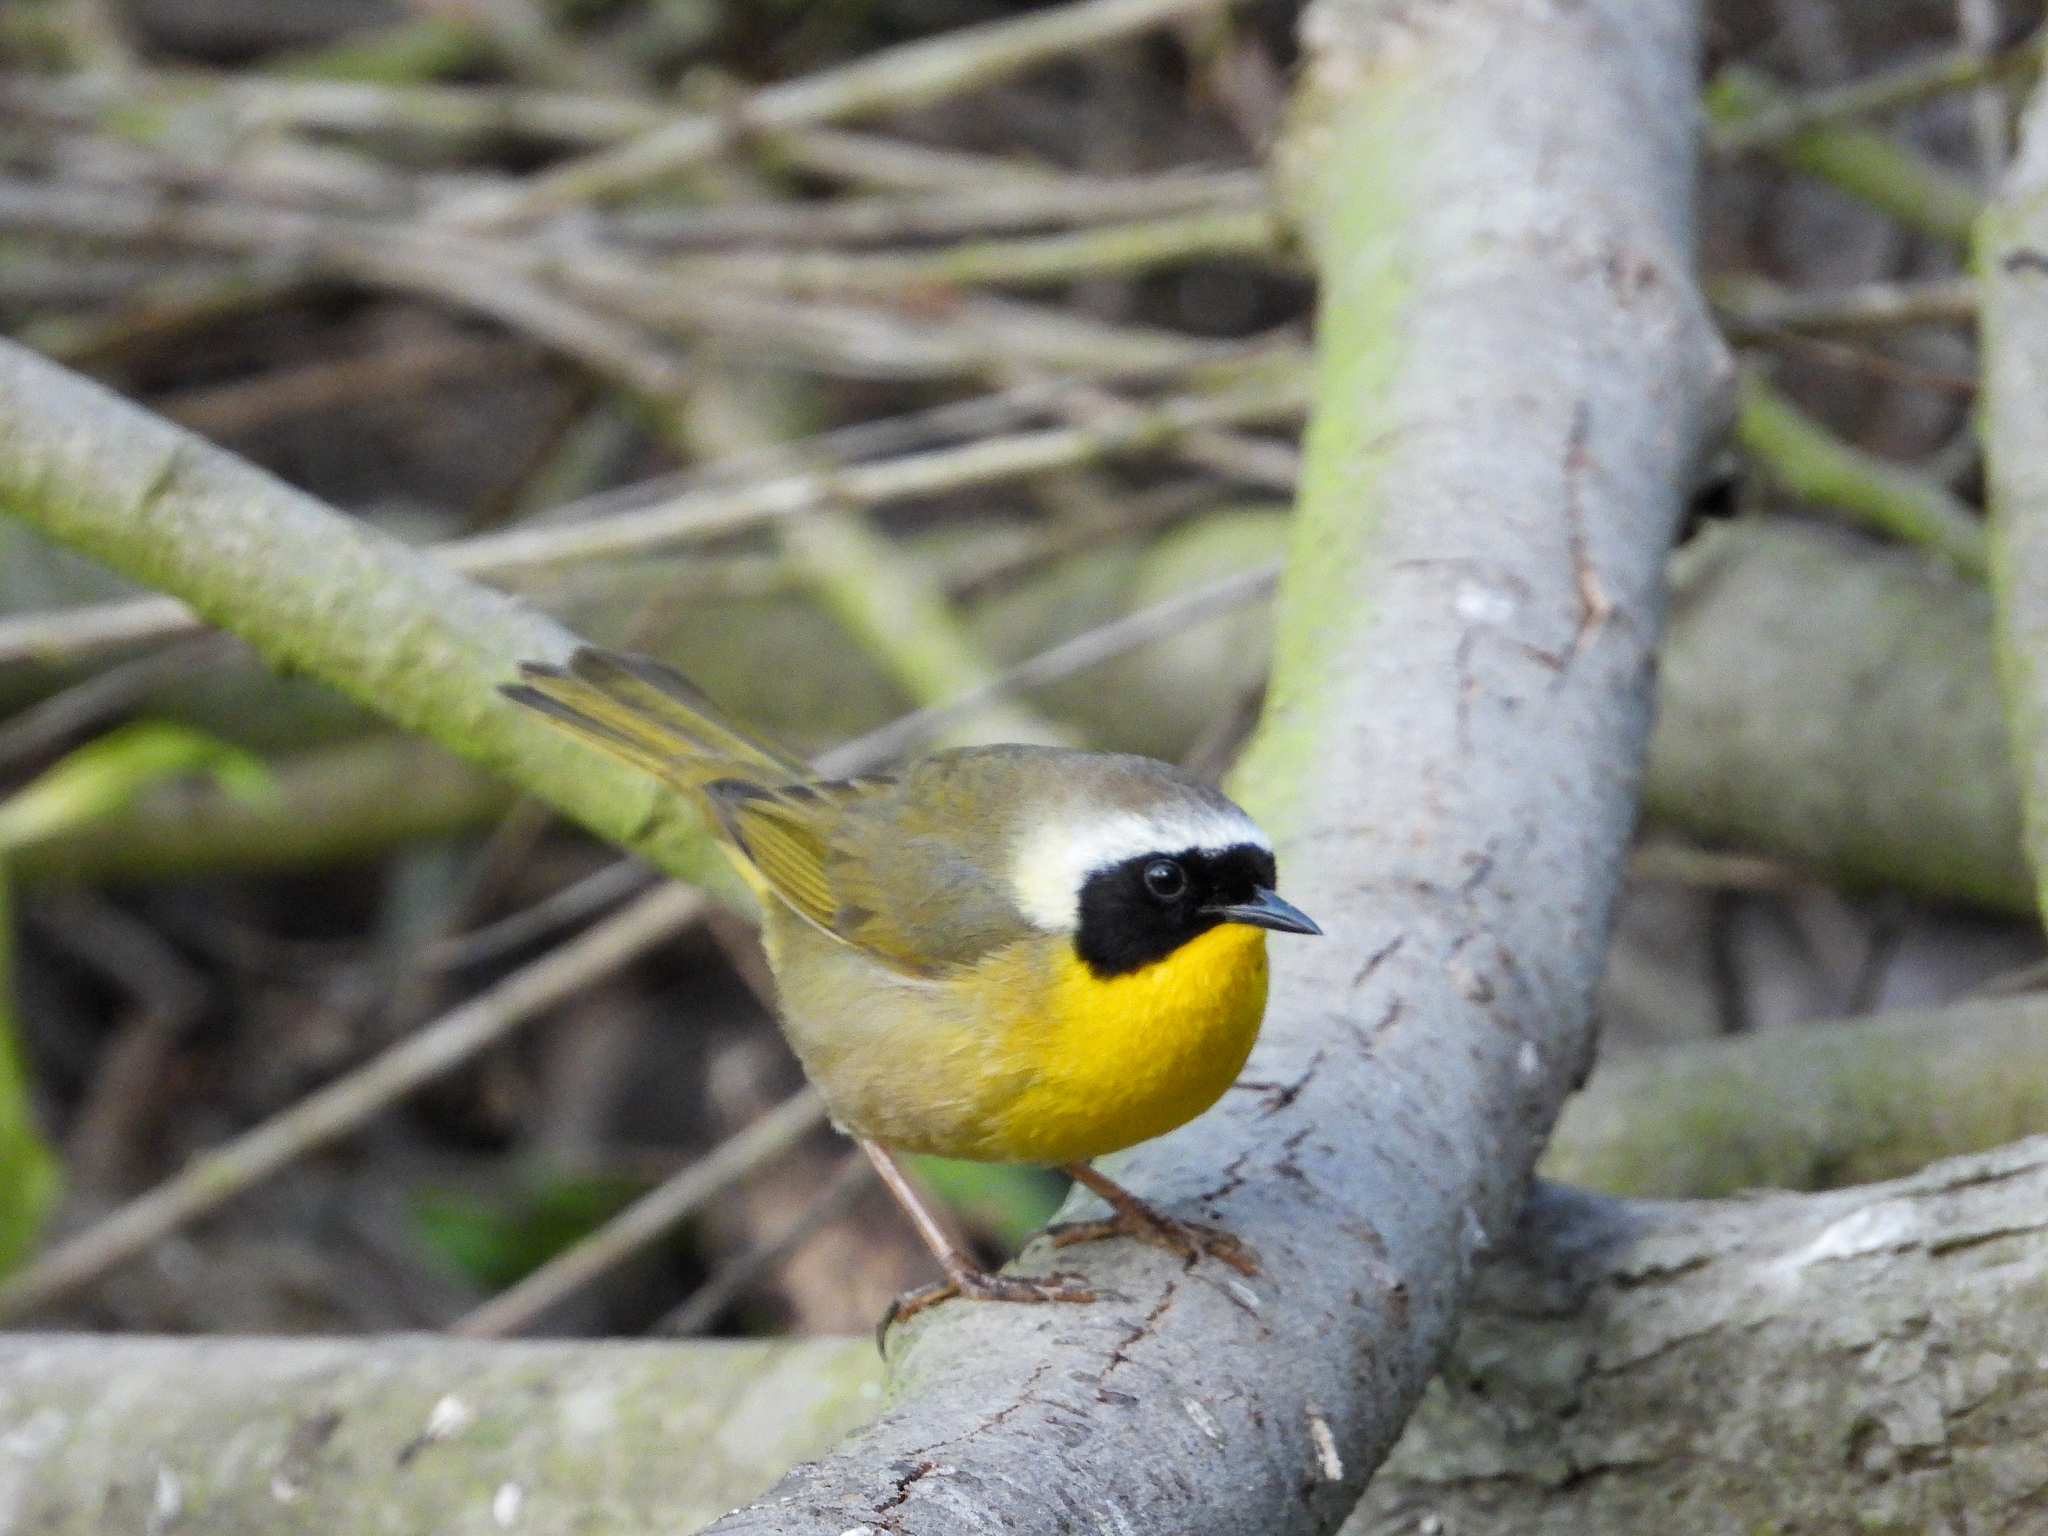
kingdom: Animalia
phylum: Chordata
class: Aves
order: Passeriformes
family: Parulidae
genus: Geothlypis
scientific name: Geothlypis trichas
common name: Common yellowthroat
